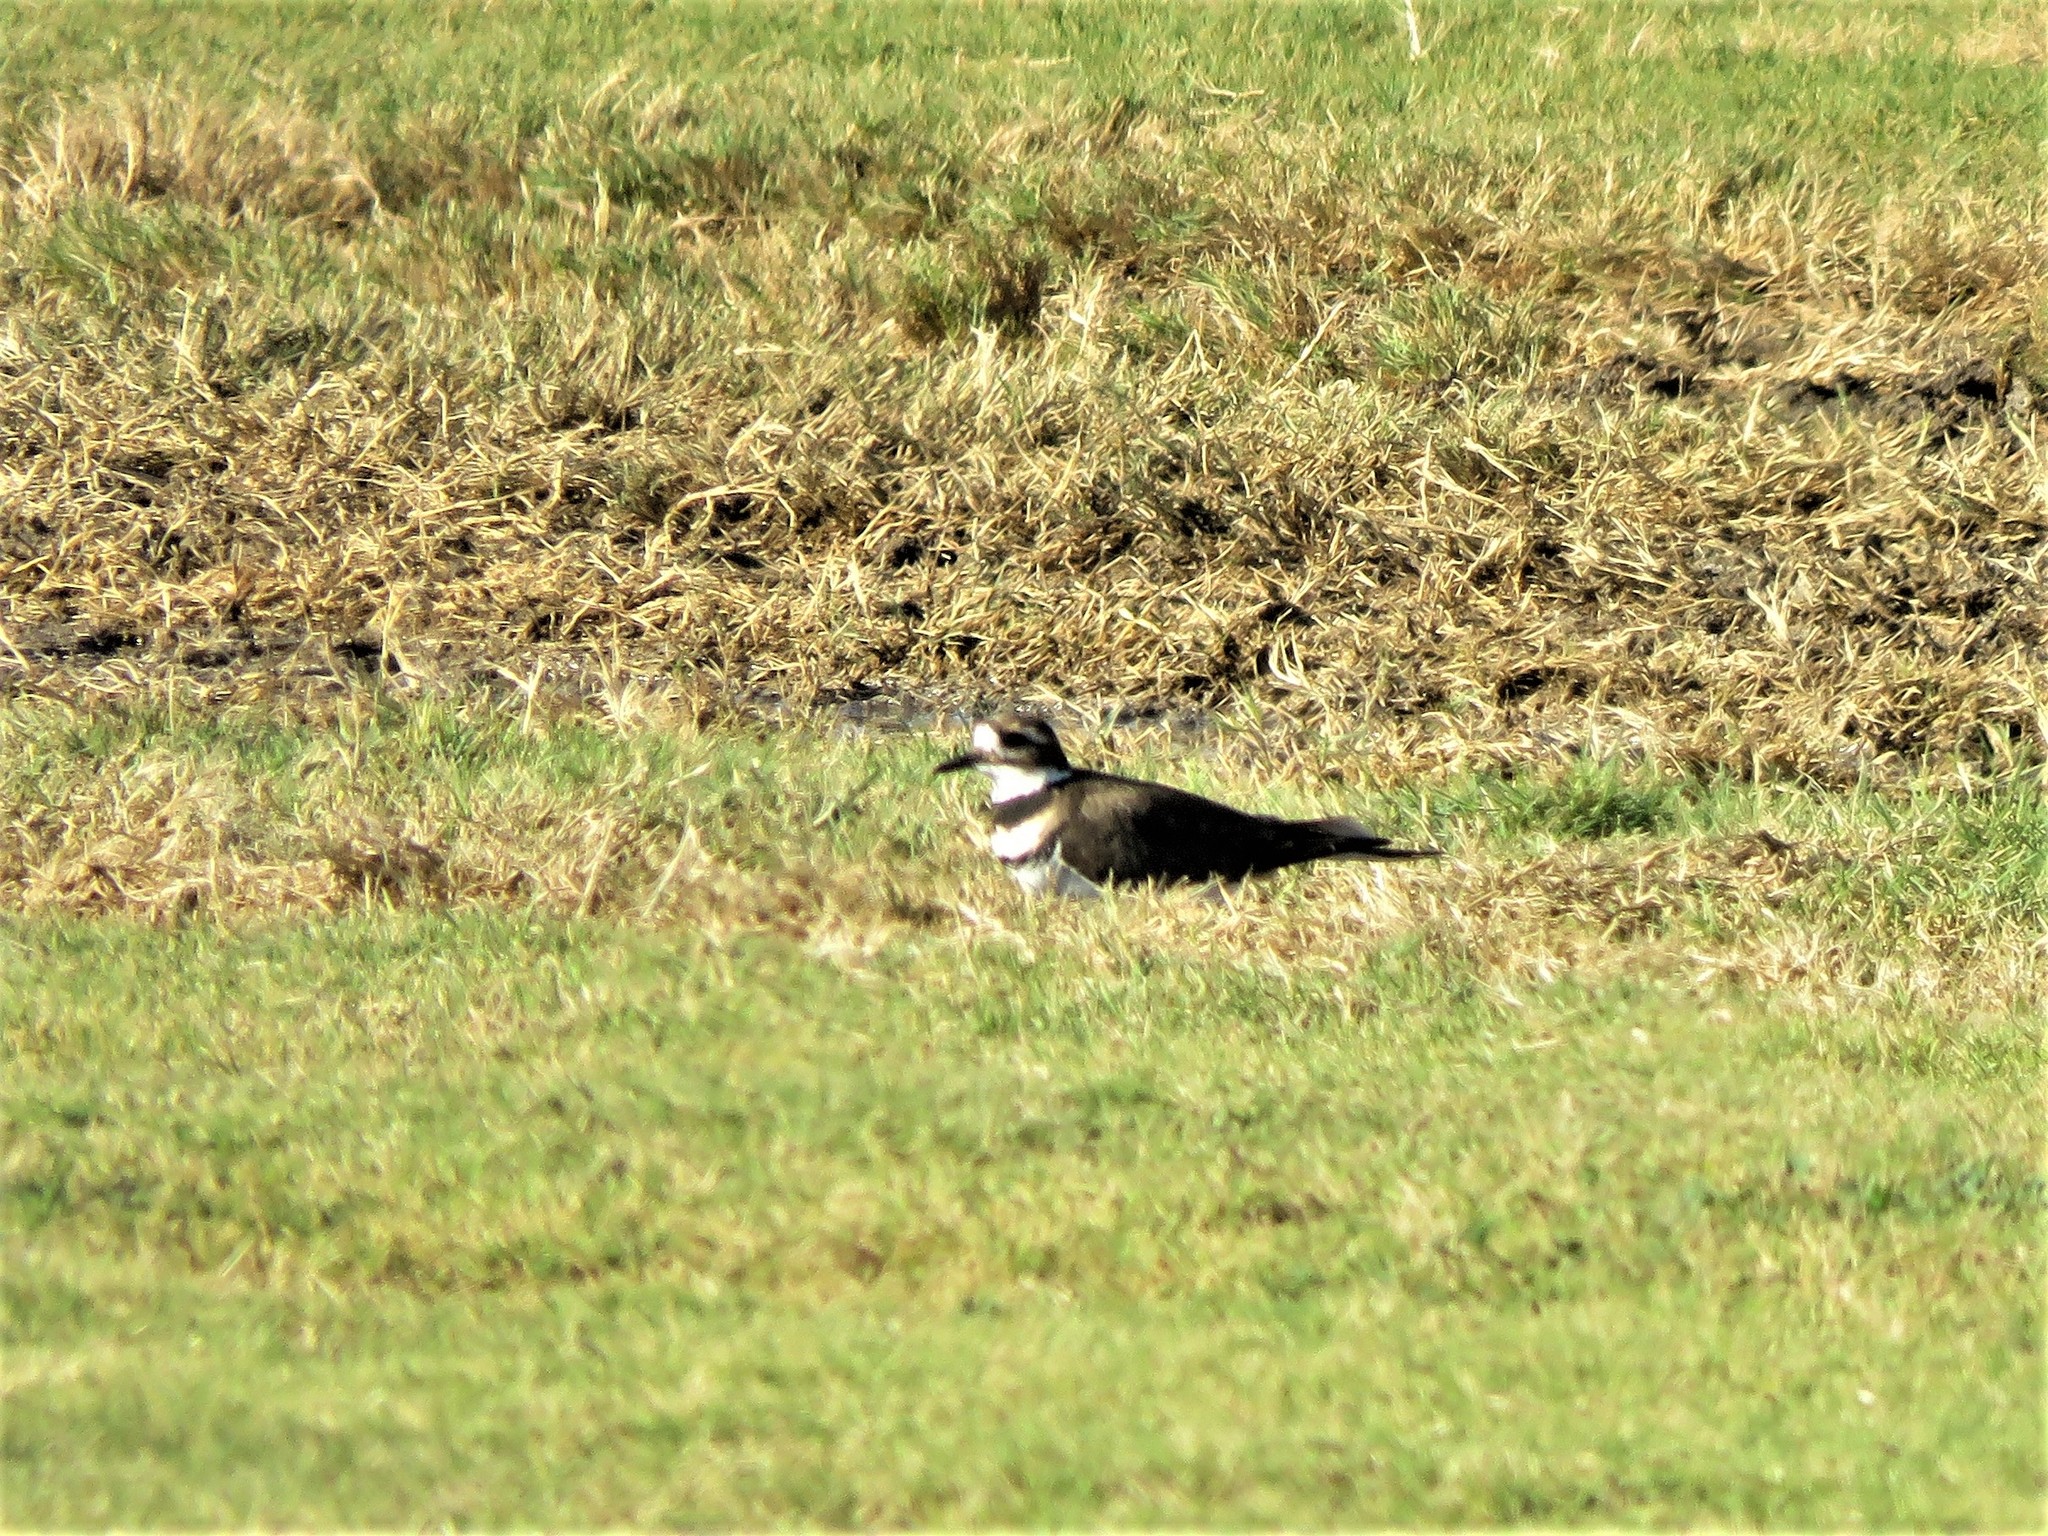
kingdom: Animalia
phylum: Chordata
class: Aves
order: Charadriiformes
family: Charadriidae
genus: Charadrius
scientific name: Charadrius vociferus
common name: Killdeer
